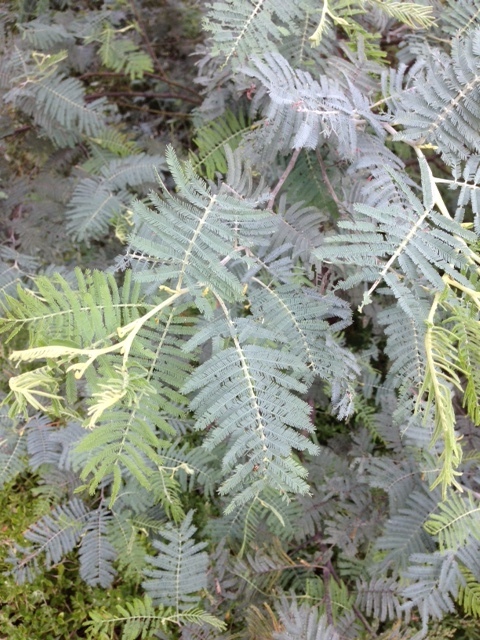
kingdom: Plantae
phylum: Tracheophyta
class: Magnoliopsida
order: Fabales
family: Fabaceae
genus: Acacia
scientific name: Acacia dealbata
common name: Silver wattle
